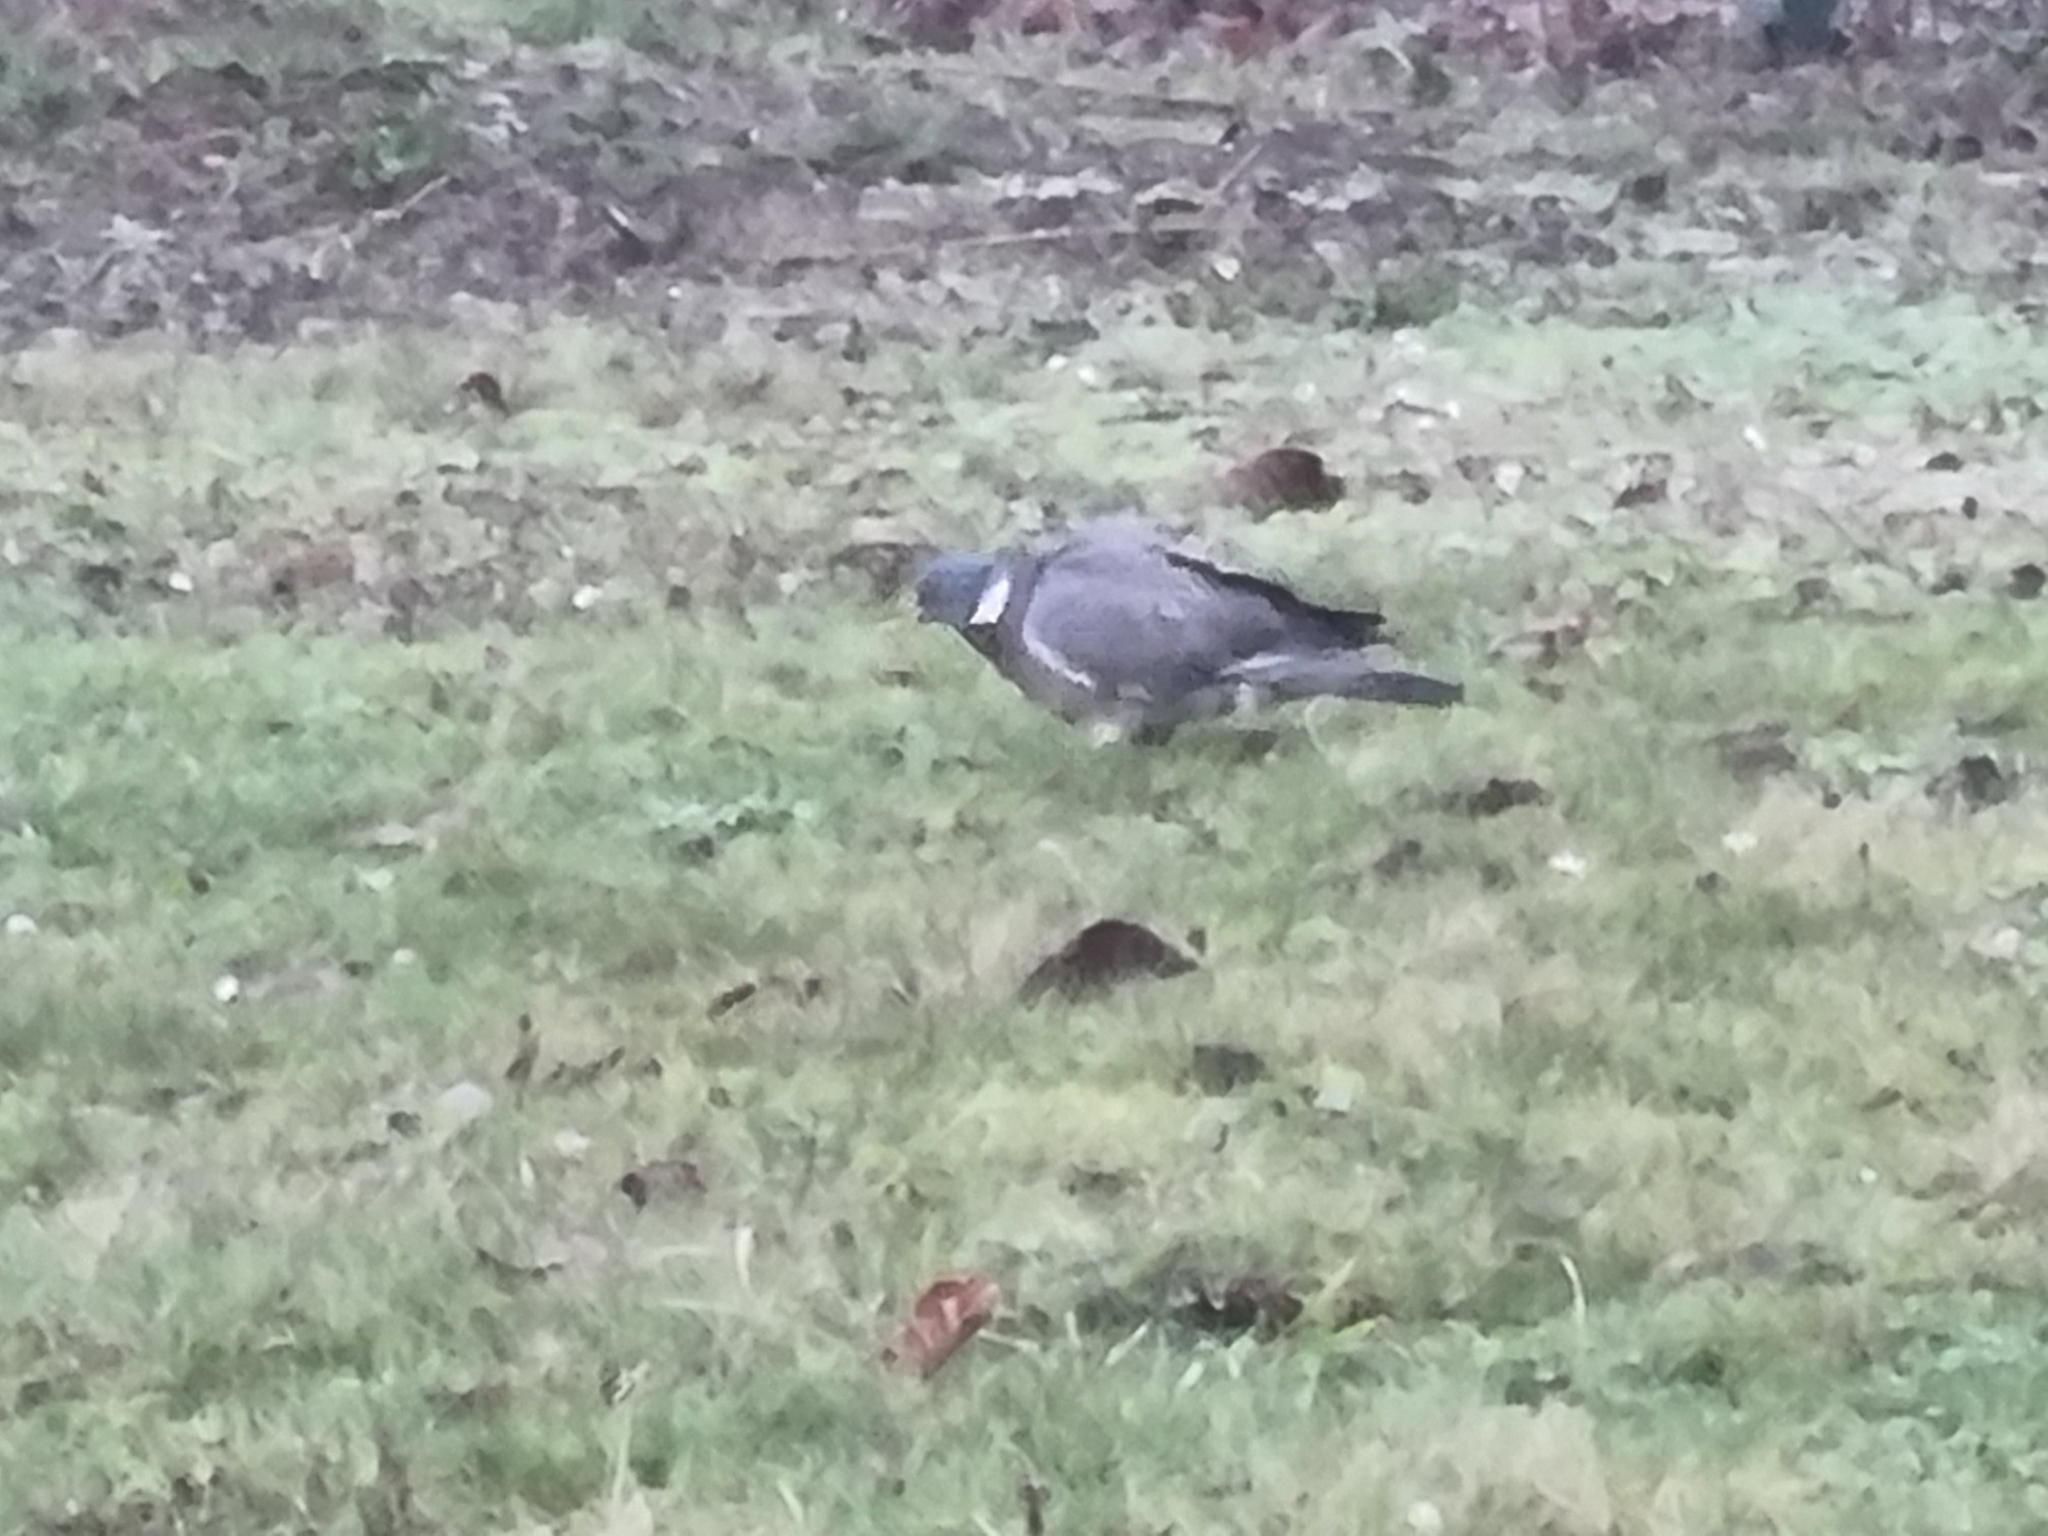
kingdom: Animalia
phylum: Chordata
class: Aves
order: Columbiformes
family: Columbidae
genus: Columba
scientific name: Columba palumbus
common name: Common wood pigeon
